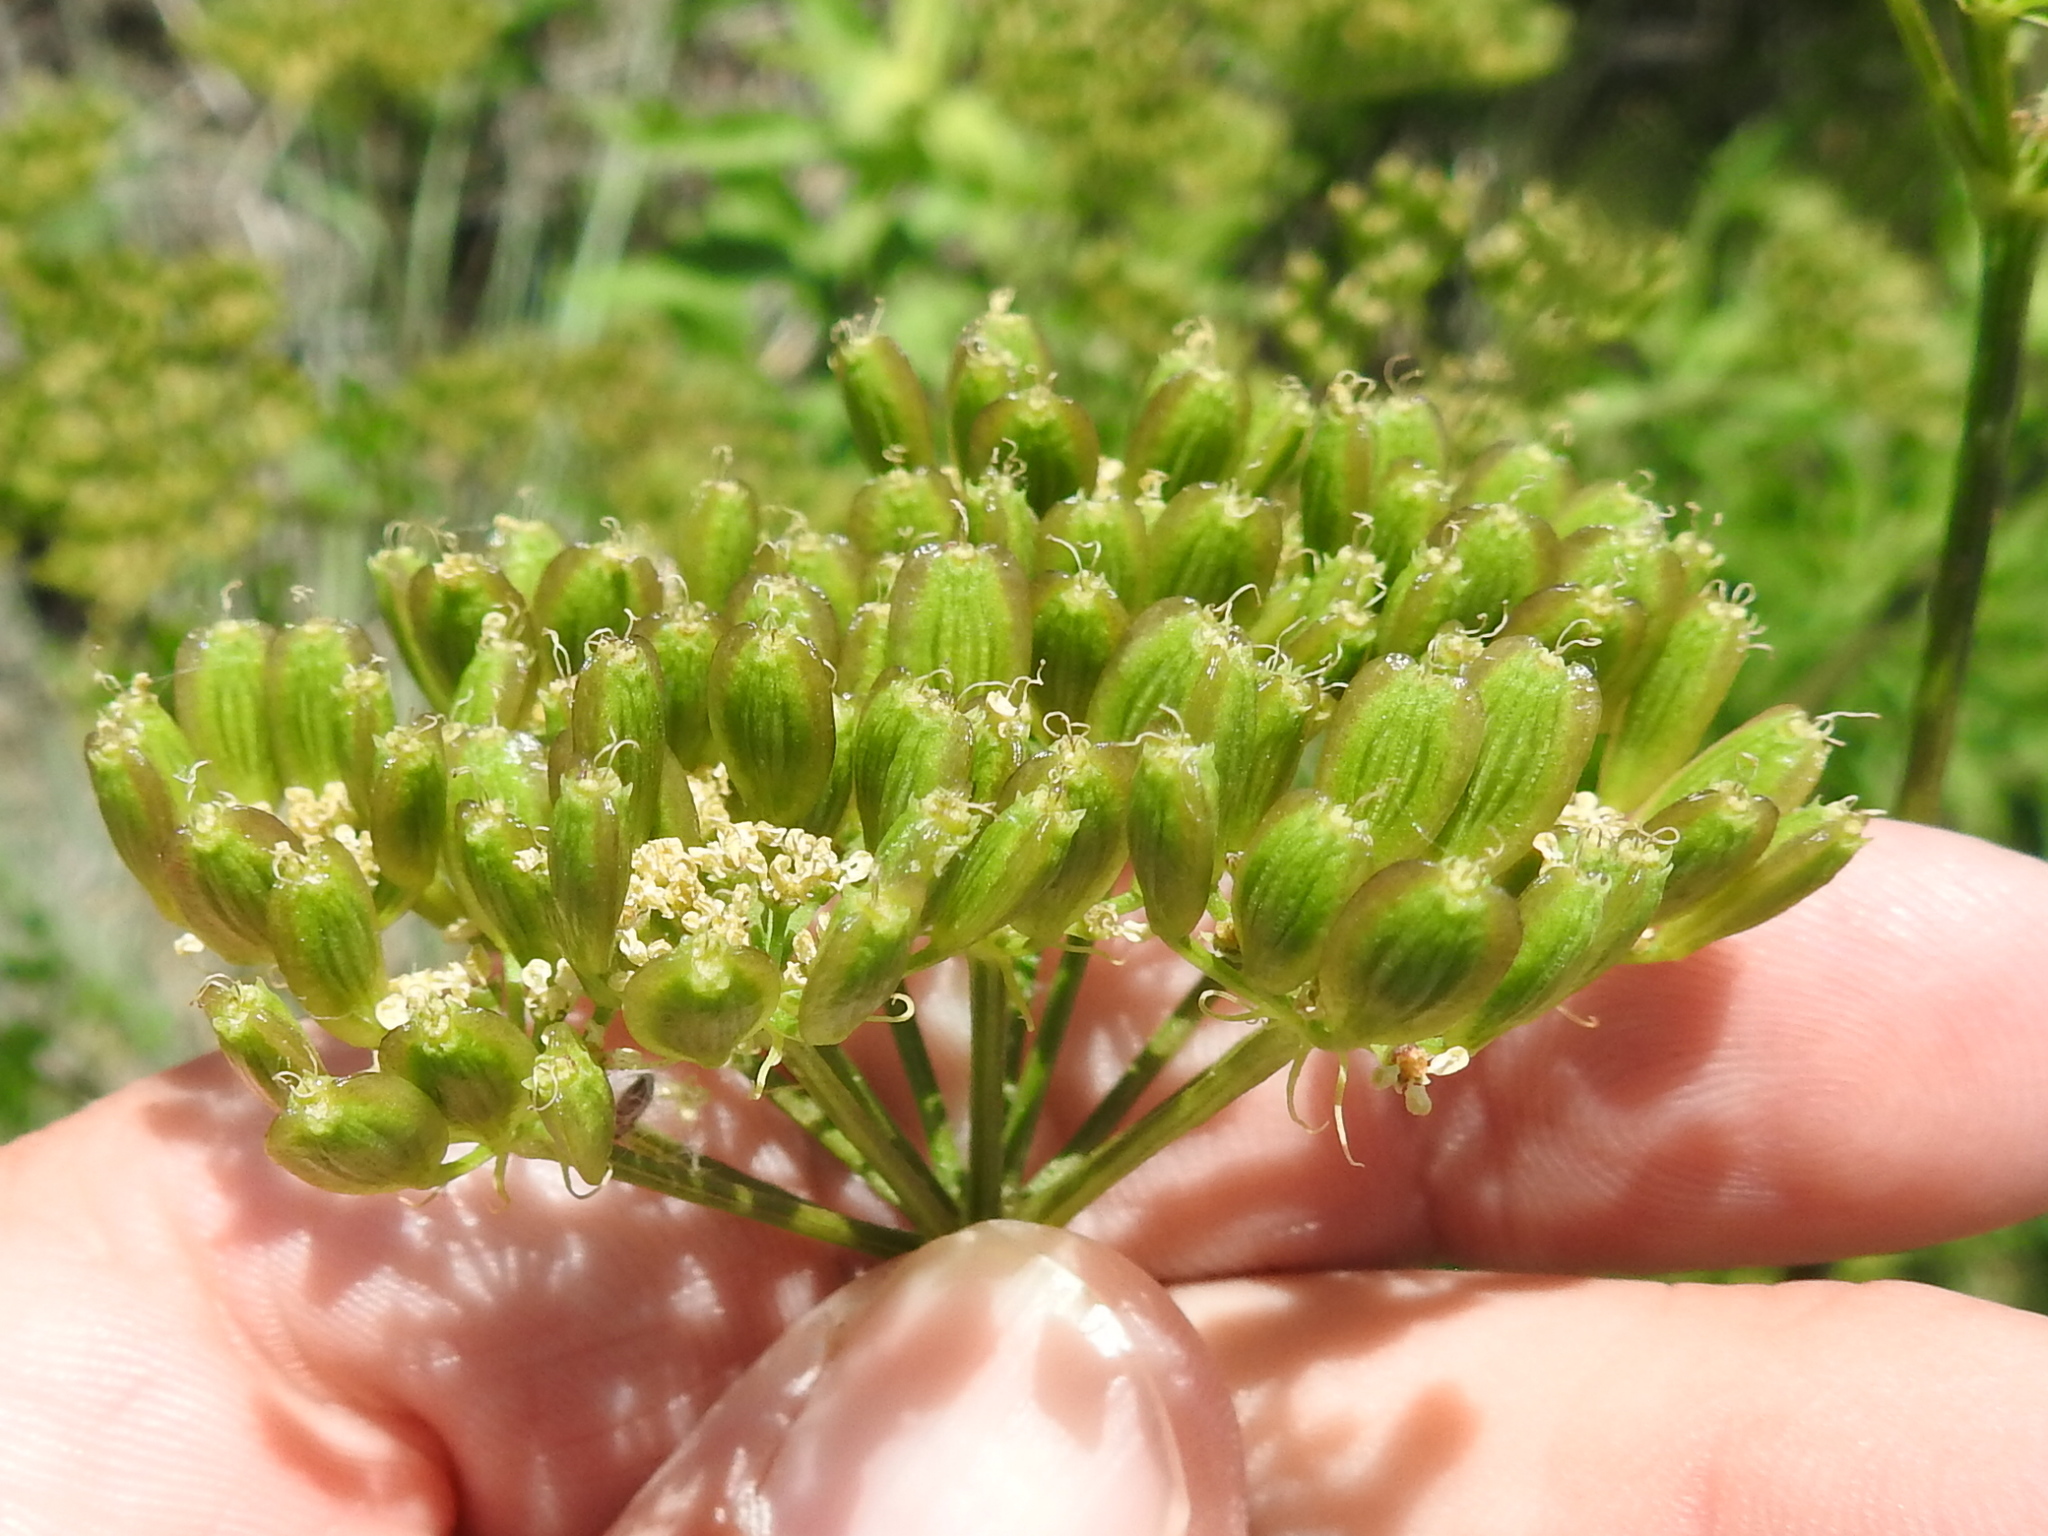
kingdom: Plantae
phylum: Tracheophyta
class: Magnoliopsida
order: Apiales
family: Apiaceae
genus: Polytaenia
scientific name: Polytaenia texana
